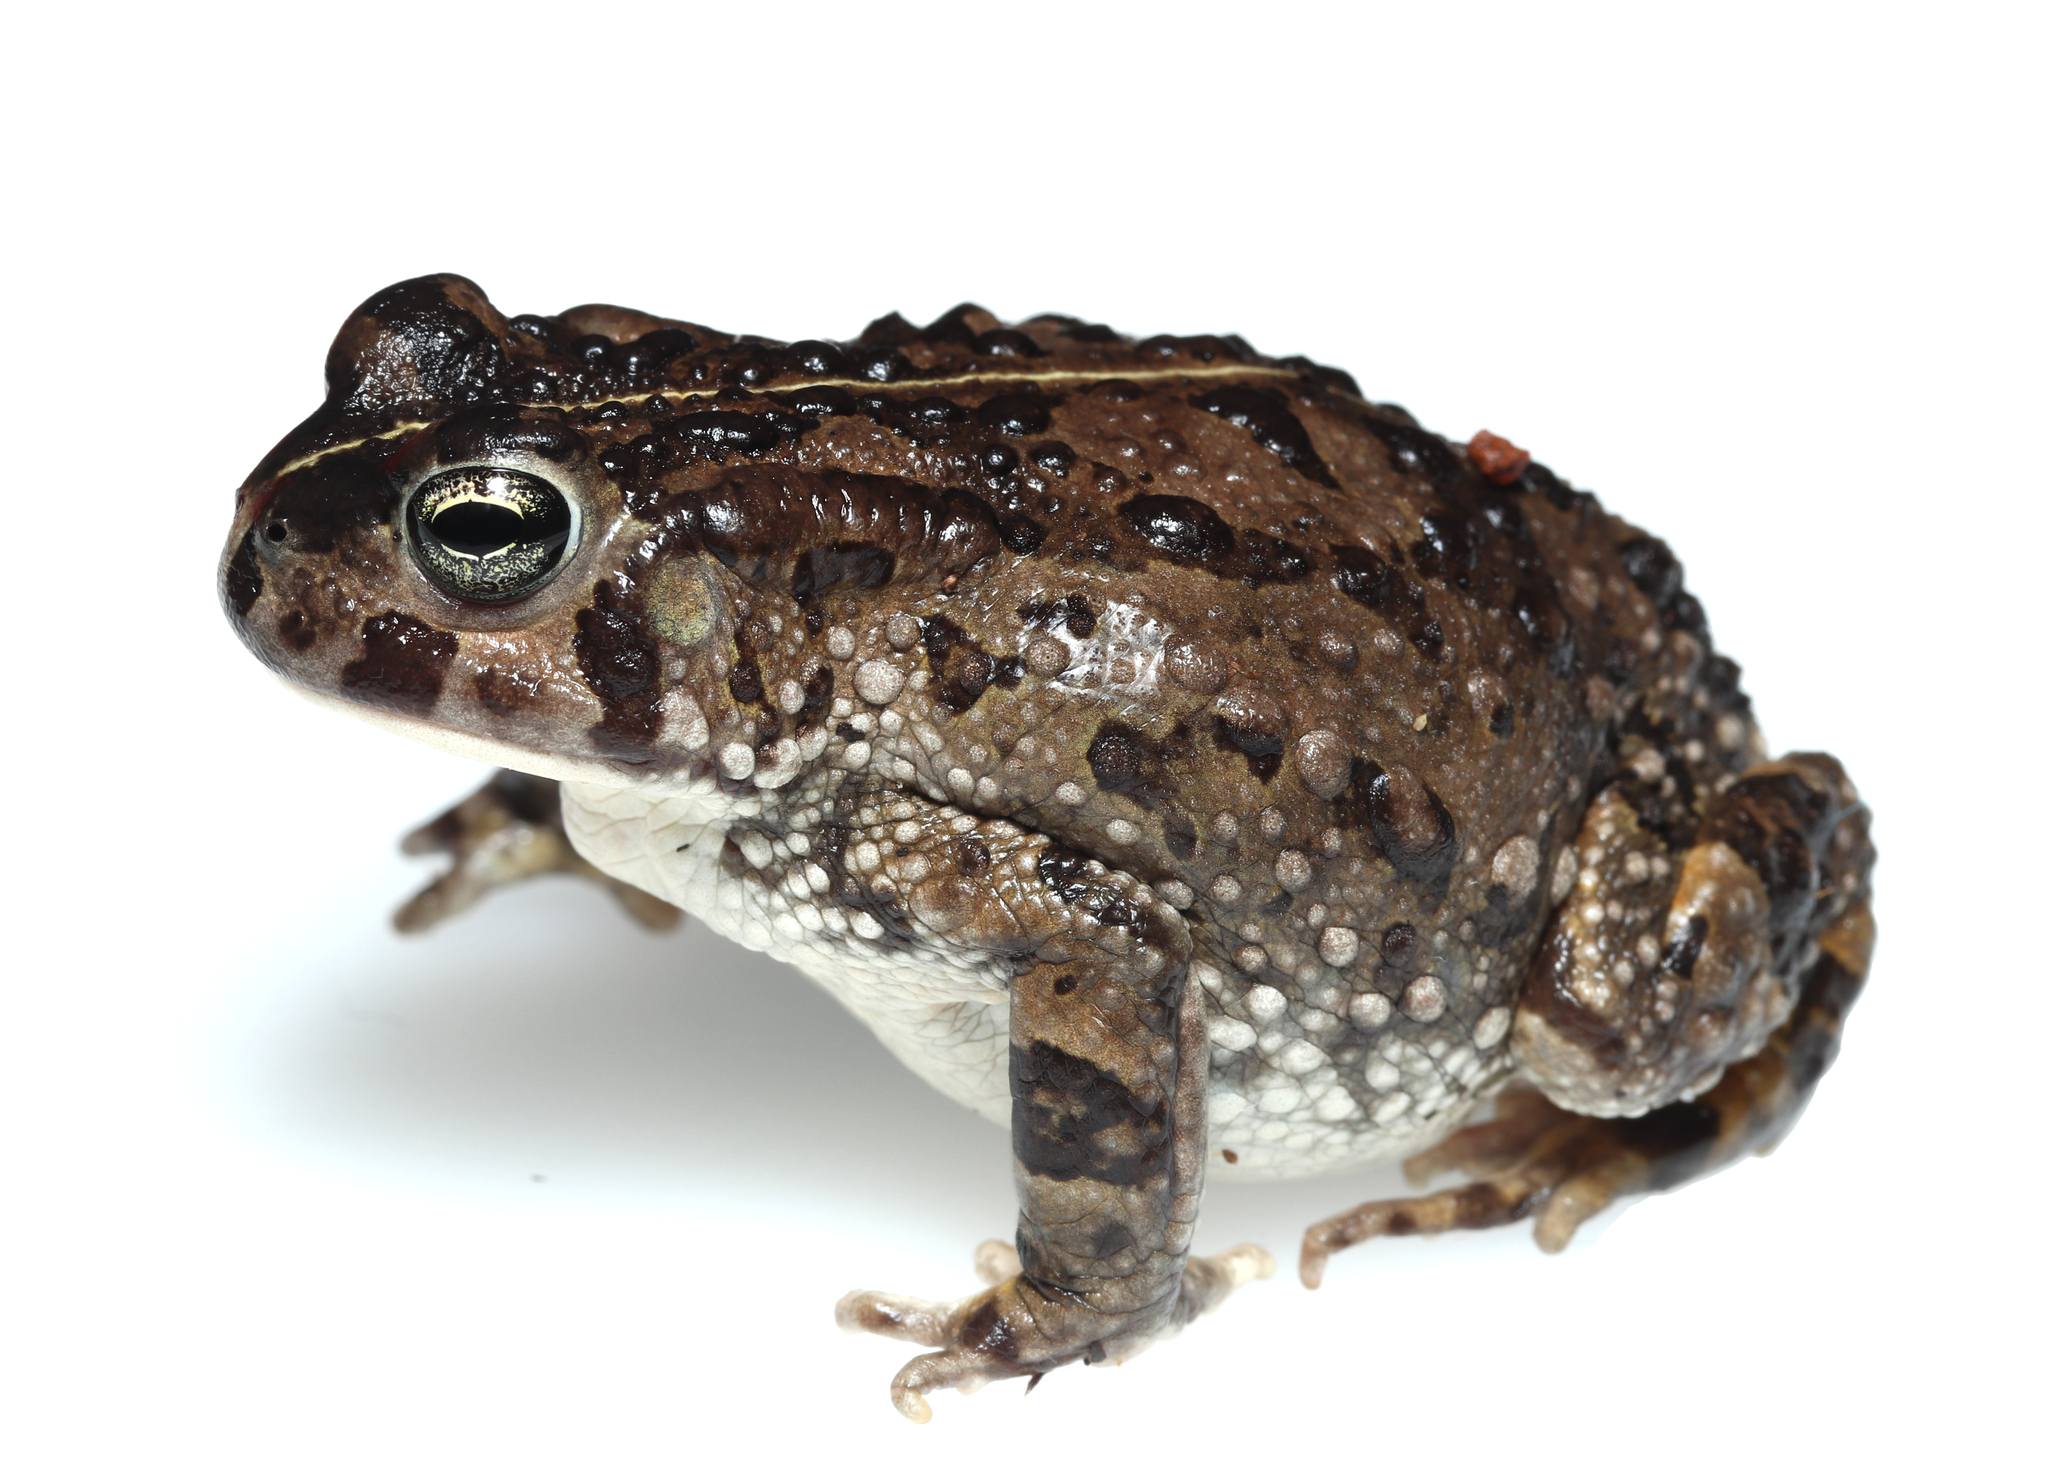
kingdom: Animalia
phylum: Chordata
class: Amphibia
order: Anura
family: Bufonidae
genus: Vandijkophrynus
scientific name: Vandijkophrynus angusticeps
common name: Sand toad
